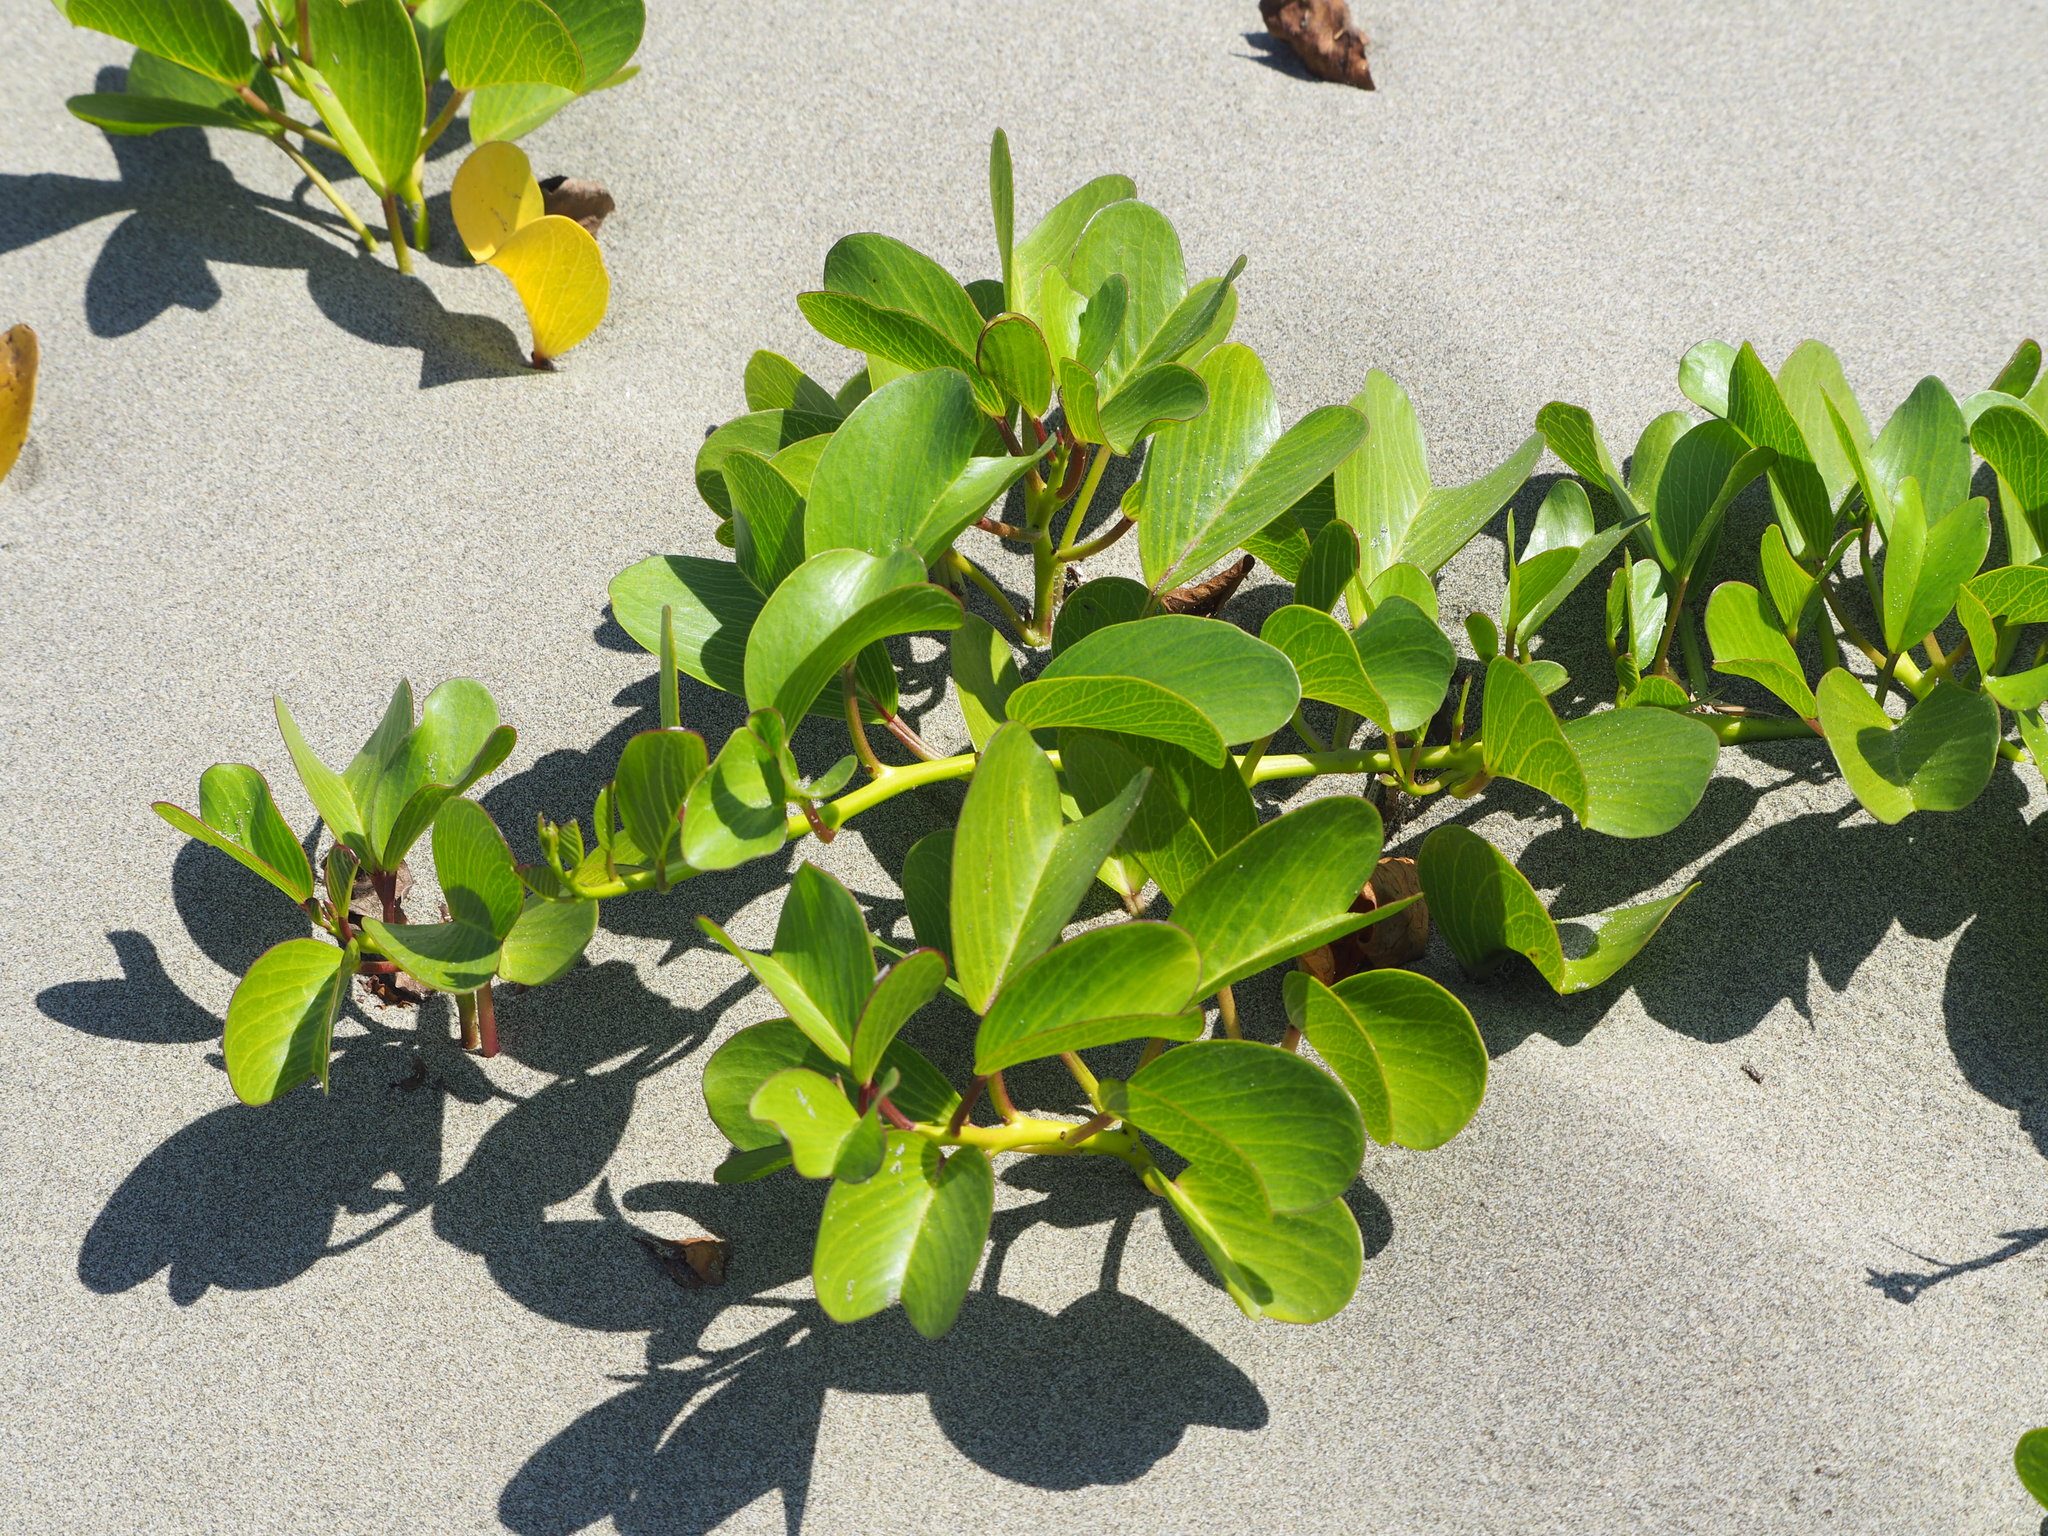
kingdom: Plantae
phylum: Tracheophyta
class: Magnoliopsida
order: Solanales
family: Convolvulaceae
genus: Ipomoea
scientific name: Ipomoea pes-caprae
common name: Beach morning glory
